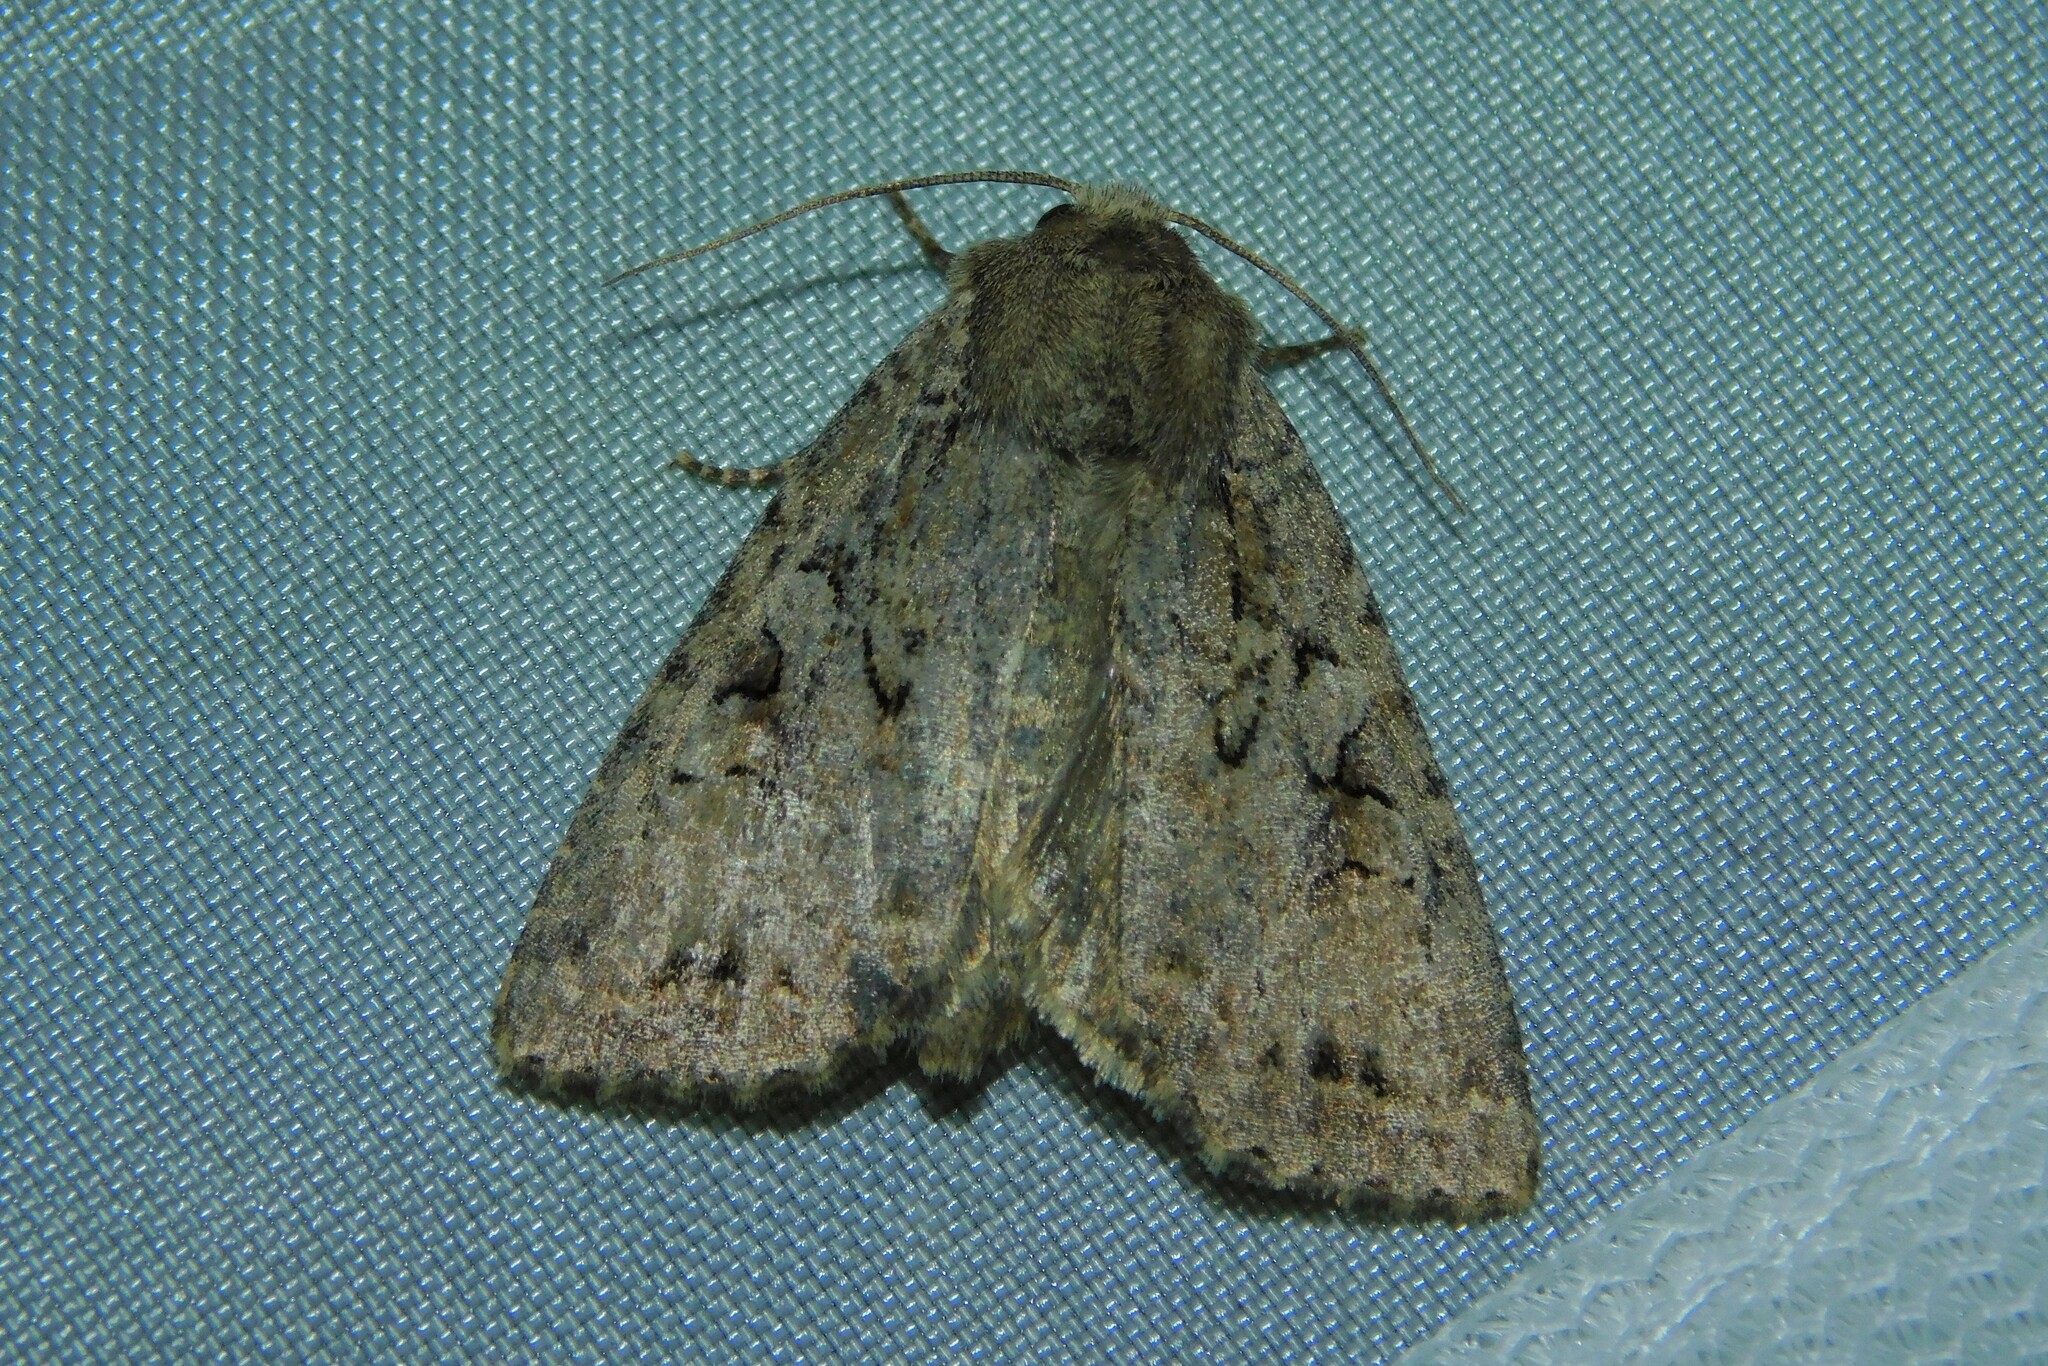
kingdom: Animalia
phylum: Arthropoda
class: Insecta
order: Lepidoptera
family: Noctuidae
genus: Apterogenum
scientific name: Apterogenum ypsillon
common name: Dingy shears
